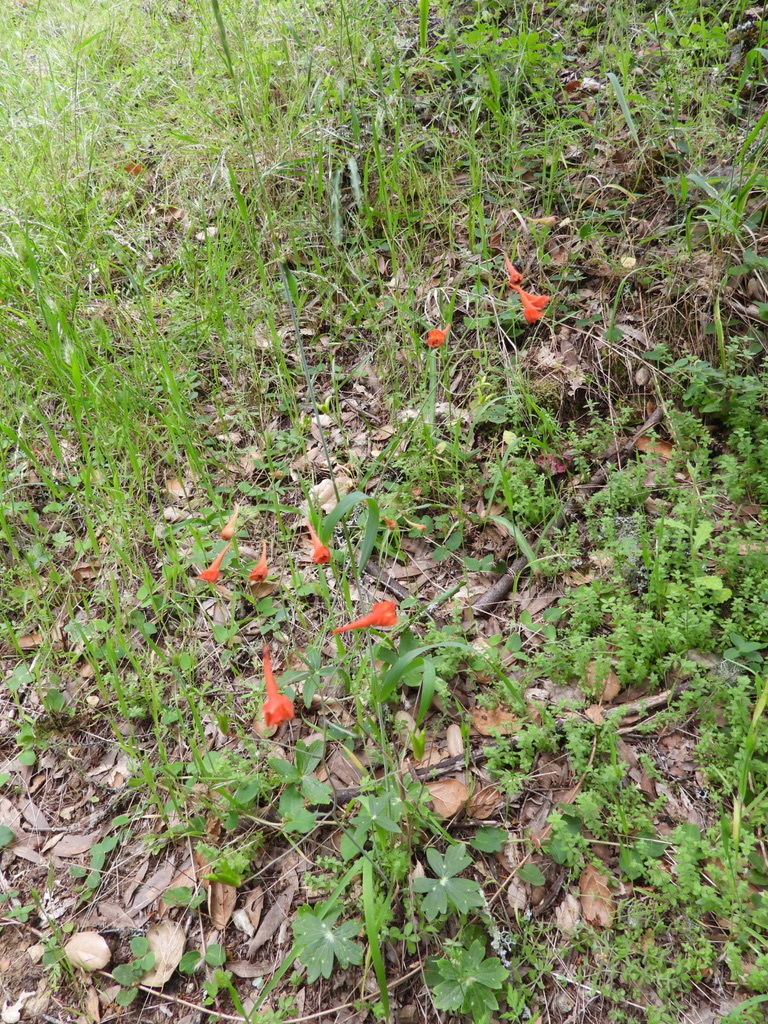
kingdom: Plantae
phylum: Tracheophyta
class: Magnoliopsida
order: Ranunculales
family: Ranunculaceae
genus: Delphinium
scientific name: Delphinium nudicaule
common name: Red larkspur
